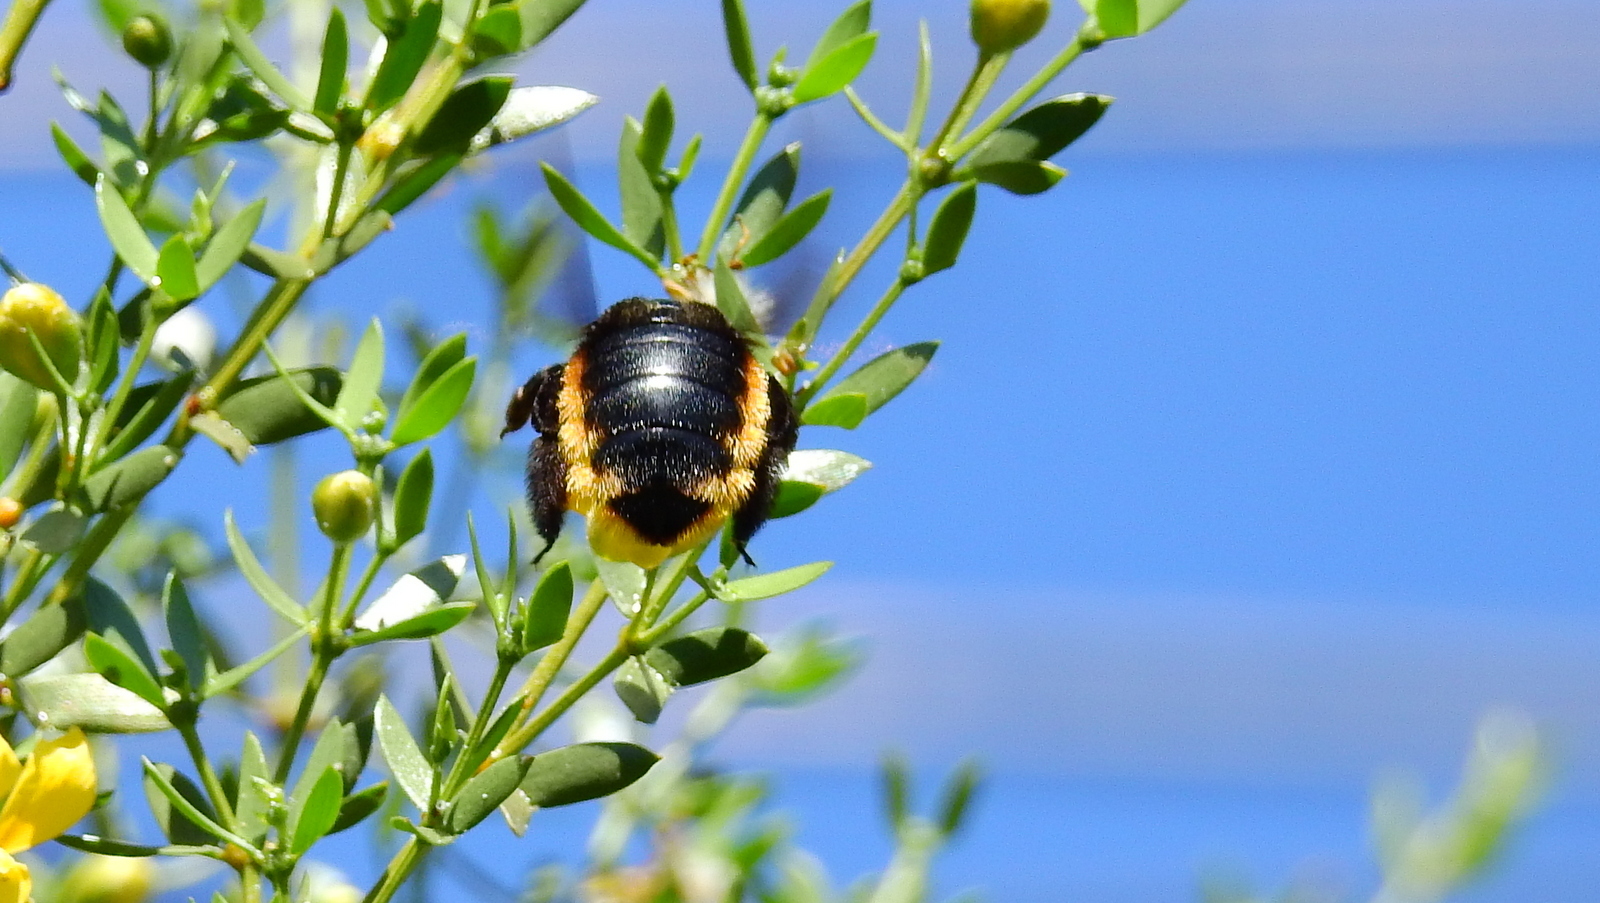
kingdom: Animalia
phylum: Arthropoda
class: Insecta
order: Hymenoptera
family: Apidae
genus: Xylocopa
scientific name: Xylocopa augusti
